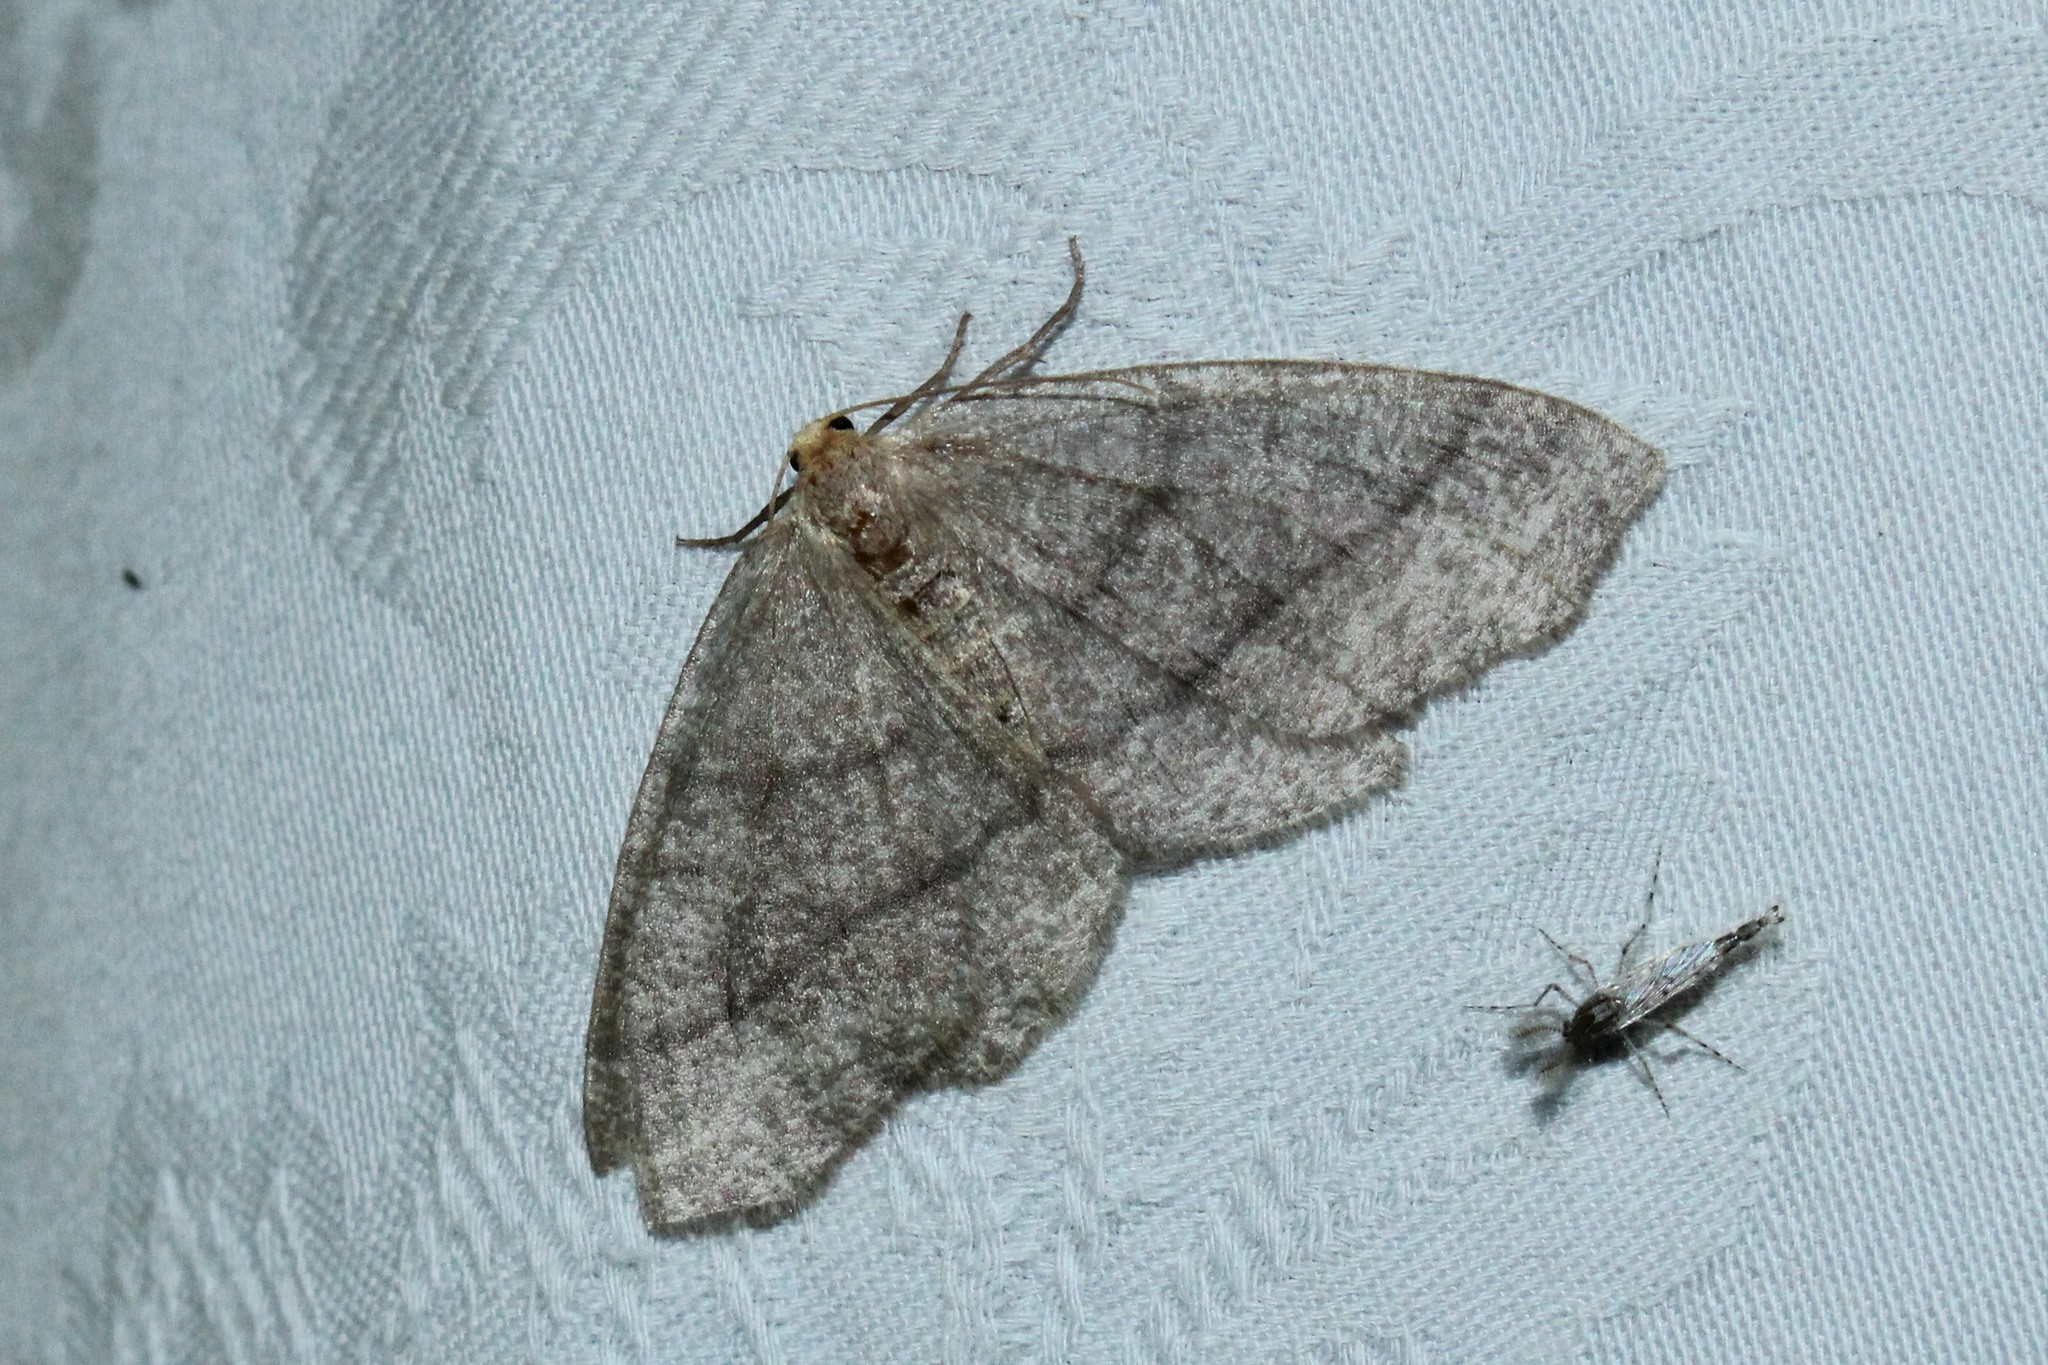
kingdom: Animalia
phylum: Arthropoda
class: Insecta
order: Lepidoptera
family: Geometridae
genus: Lambdina
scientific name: Lambdina fervidaria
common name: Curve-lined looper moth
